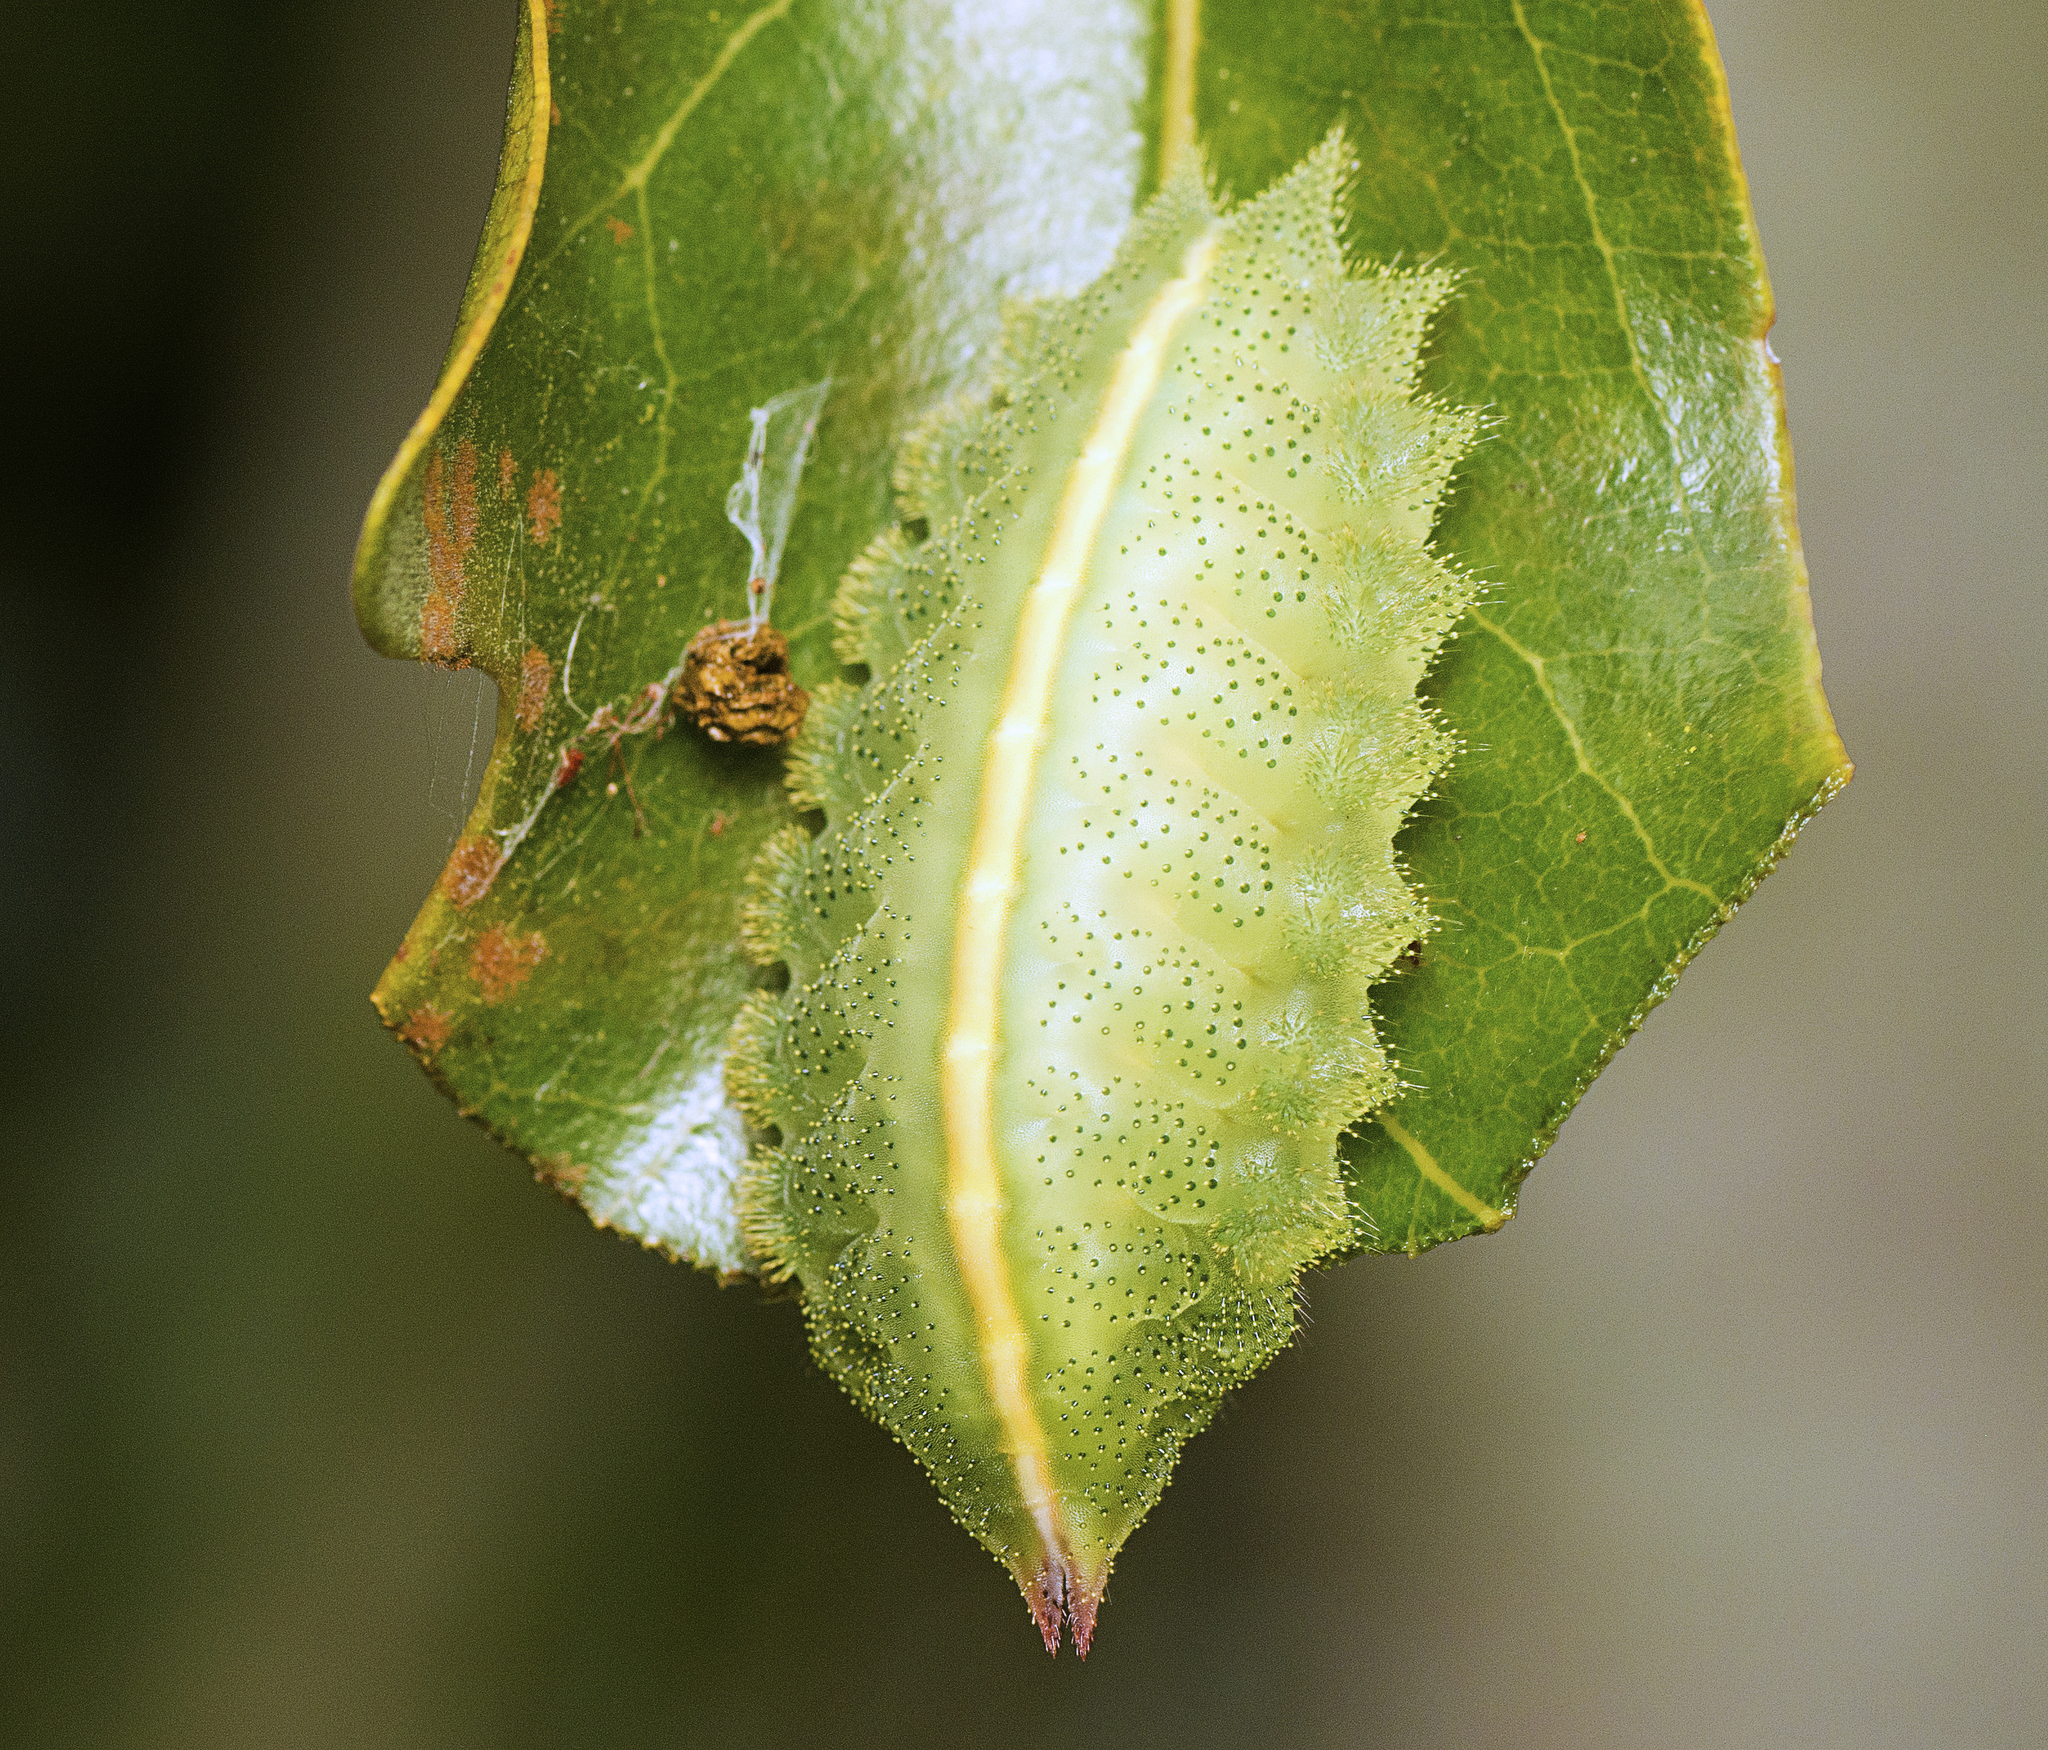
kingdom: Animalia
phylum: Arthropoda
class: Insecta
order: Lepidoptera
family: Limacodidae
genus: Mecytha
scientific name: Mecytha fasciata
